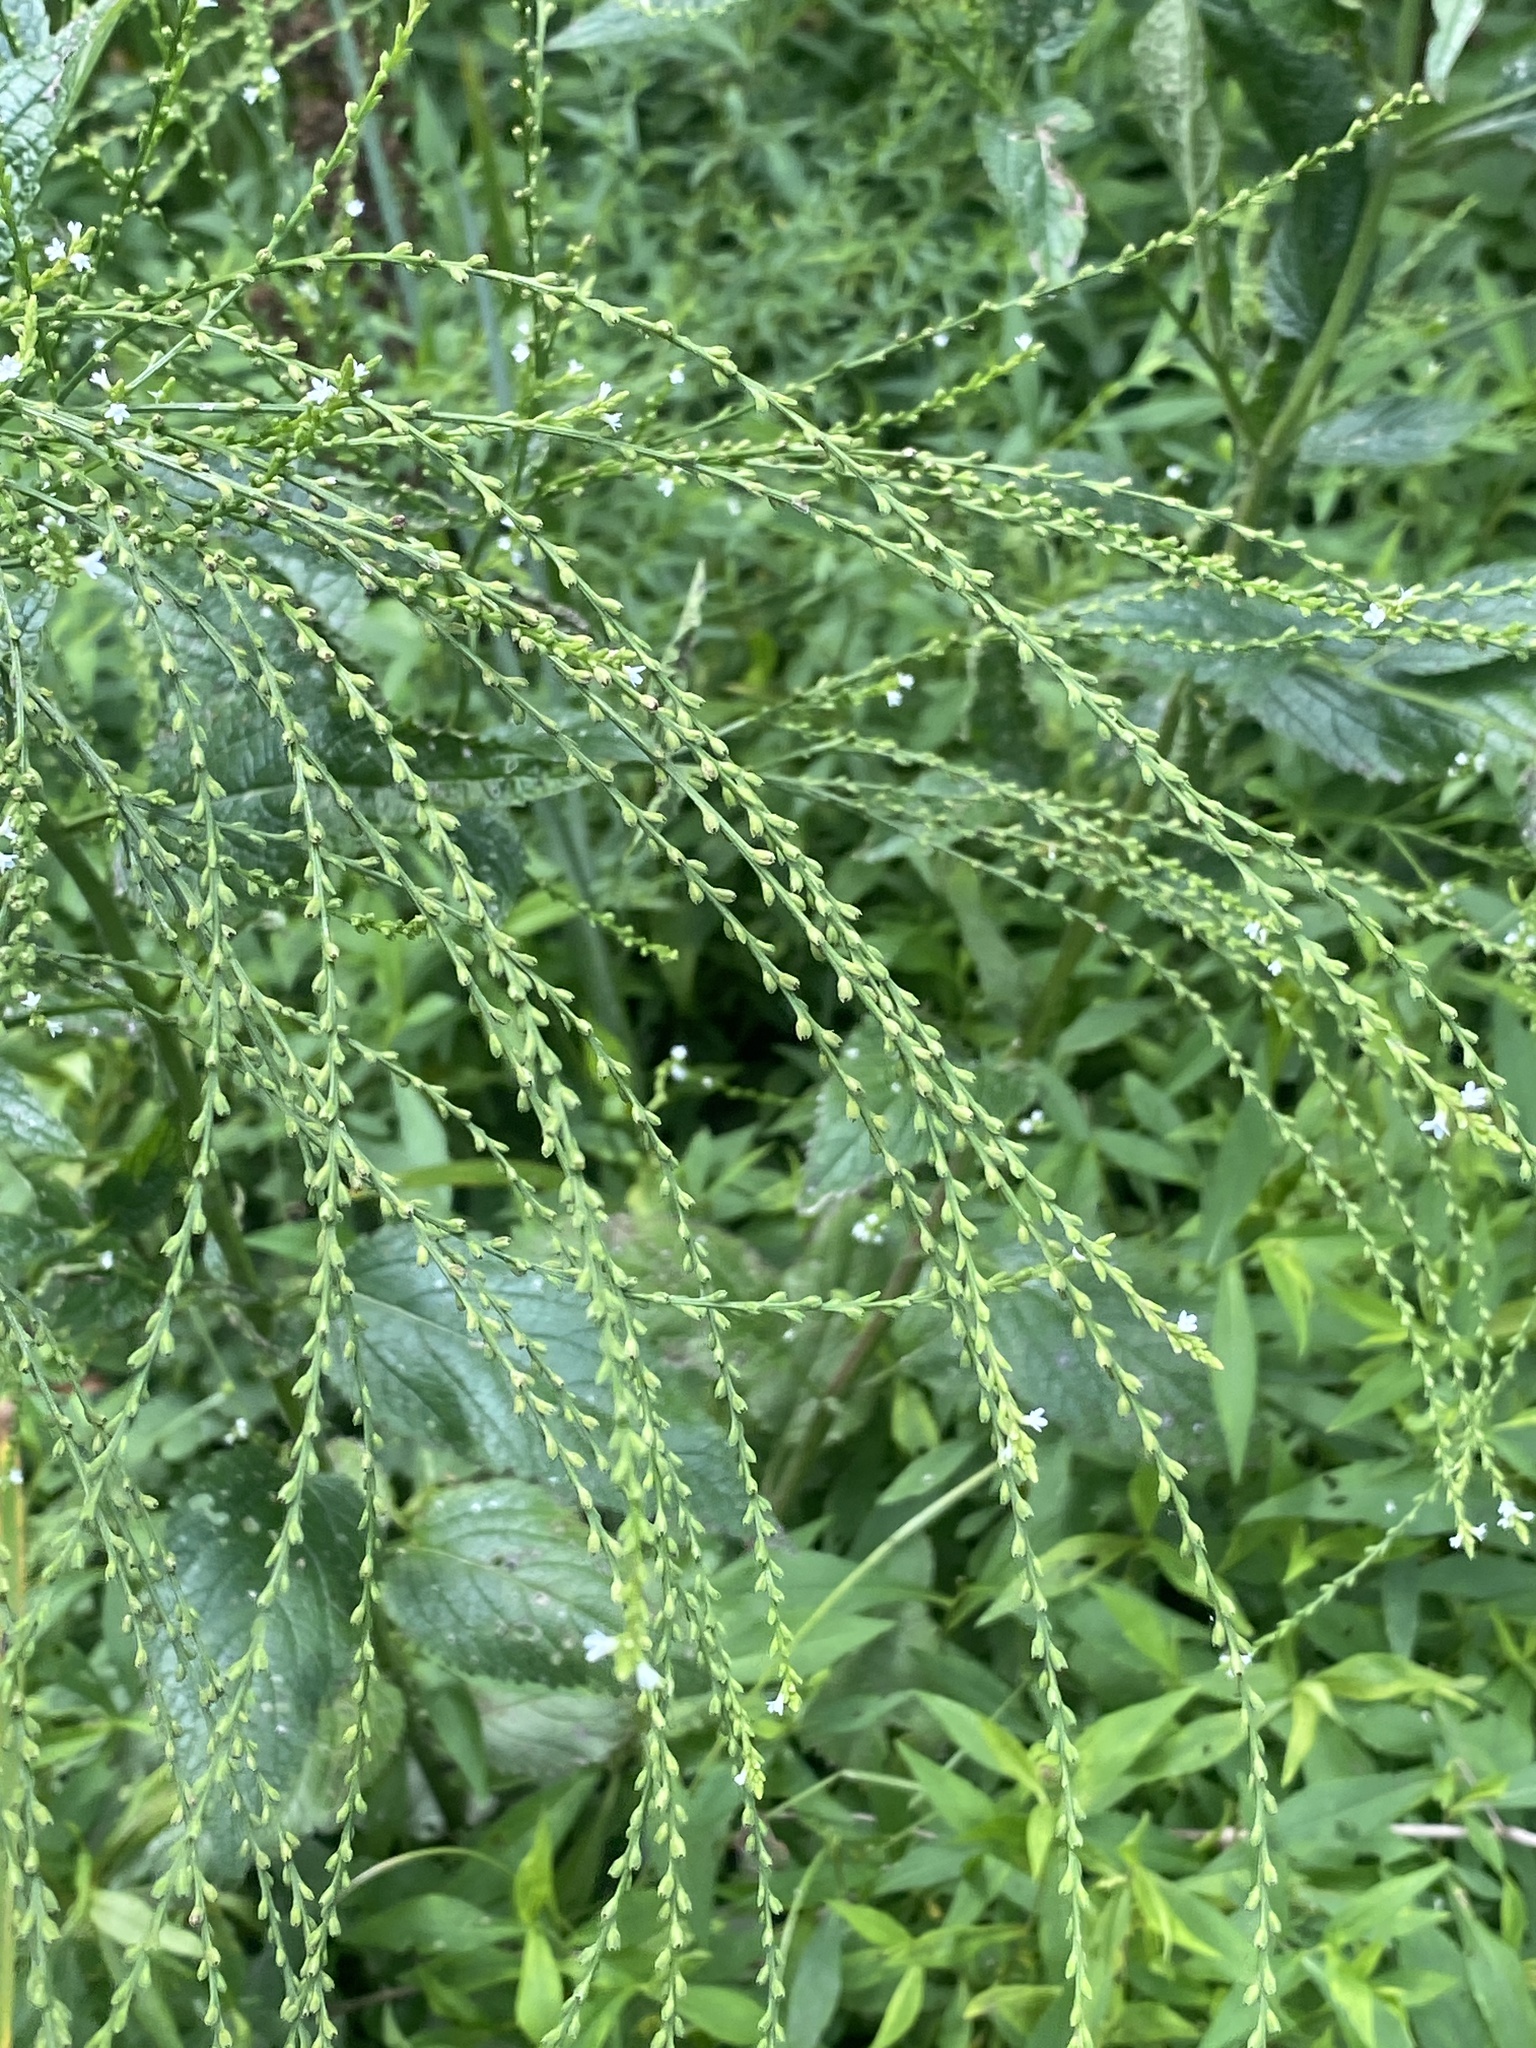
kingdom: Plantae
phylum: Tracheophyta
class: Magnoliopsida
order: Lamiales
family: Verbenaceae
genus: Verbena
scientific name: Verbena urticifolia
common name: Nettle-leaved vervain
